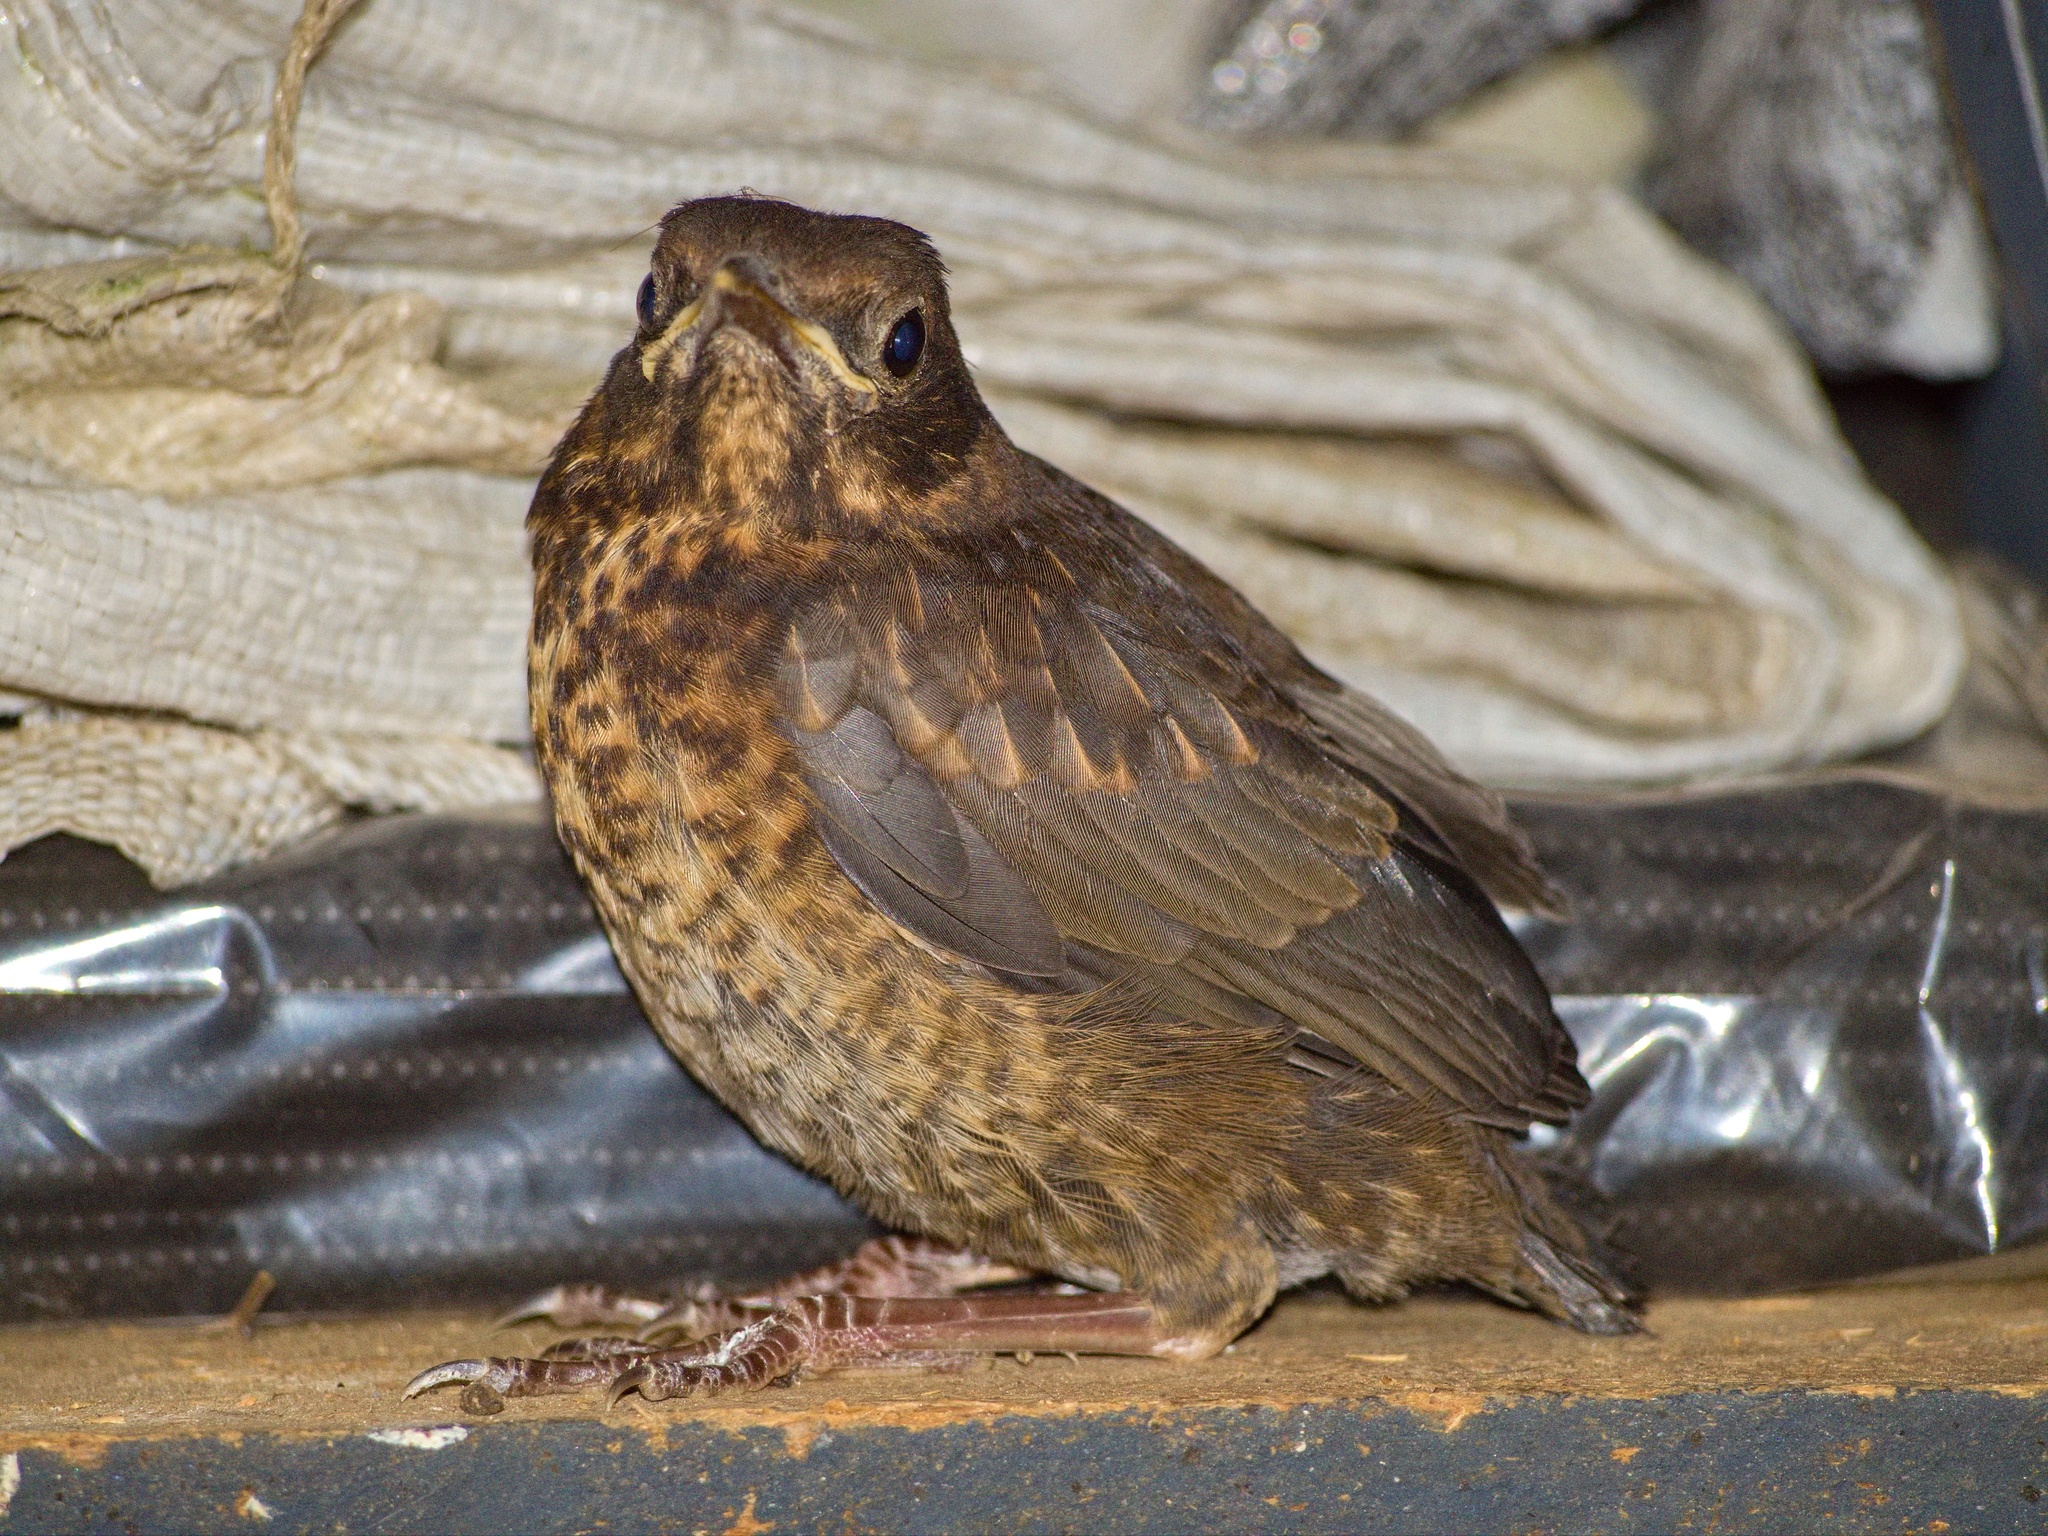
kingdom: Animalia
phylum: Chordata
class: Aves
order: Passeriformes
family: Turdidae
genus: Turdus
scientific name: Turdus merula
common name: Common blackbird
